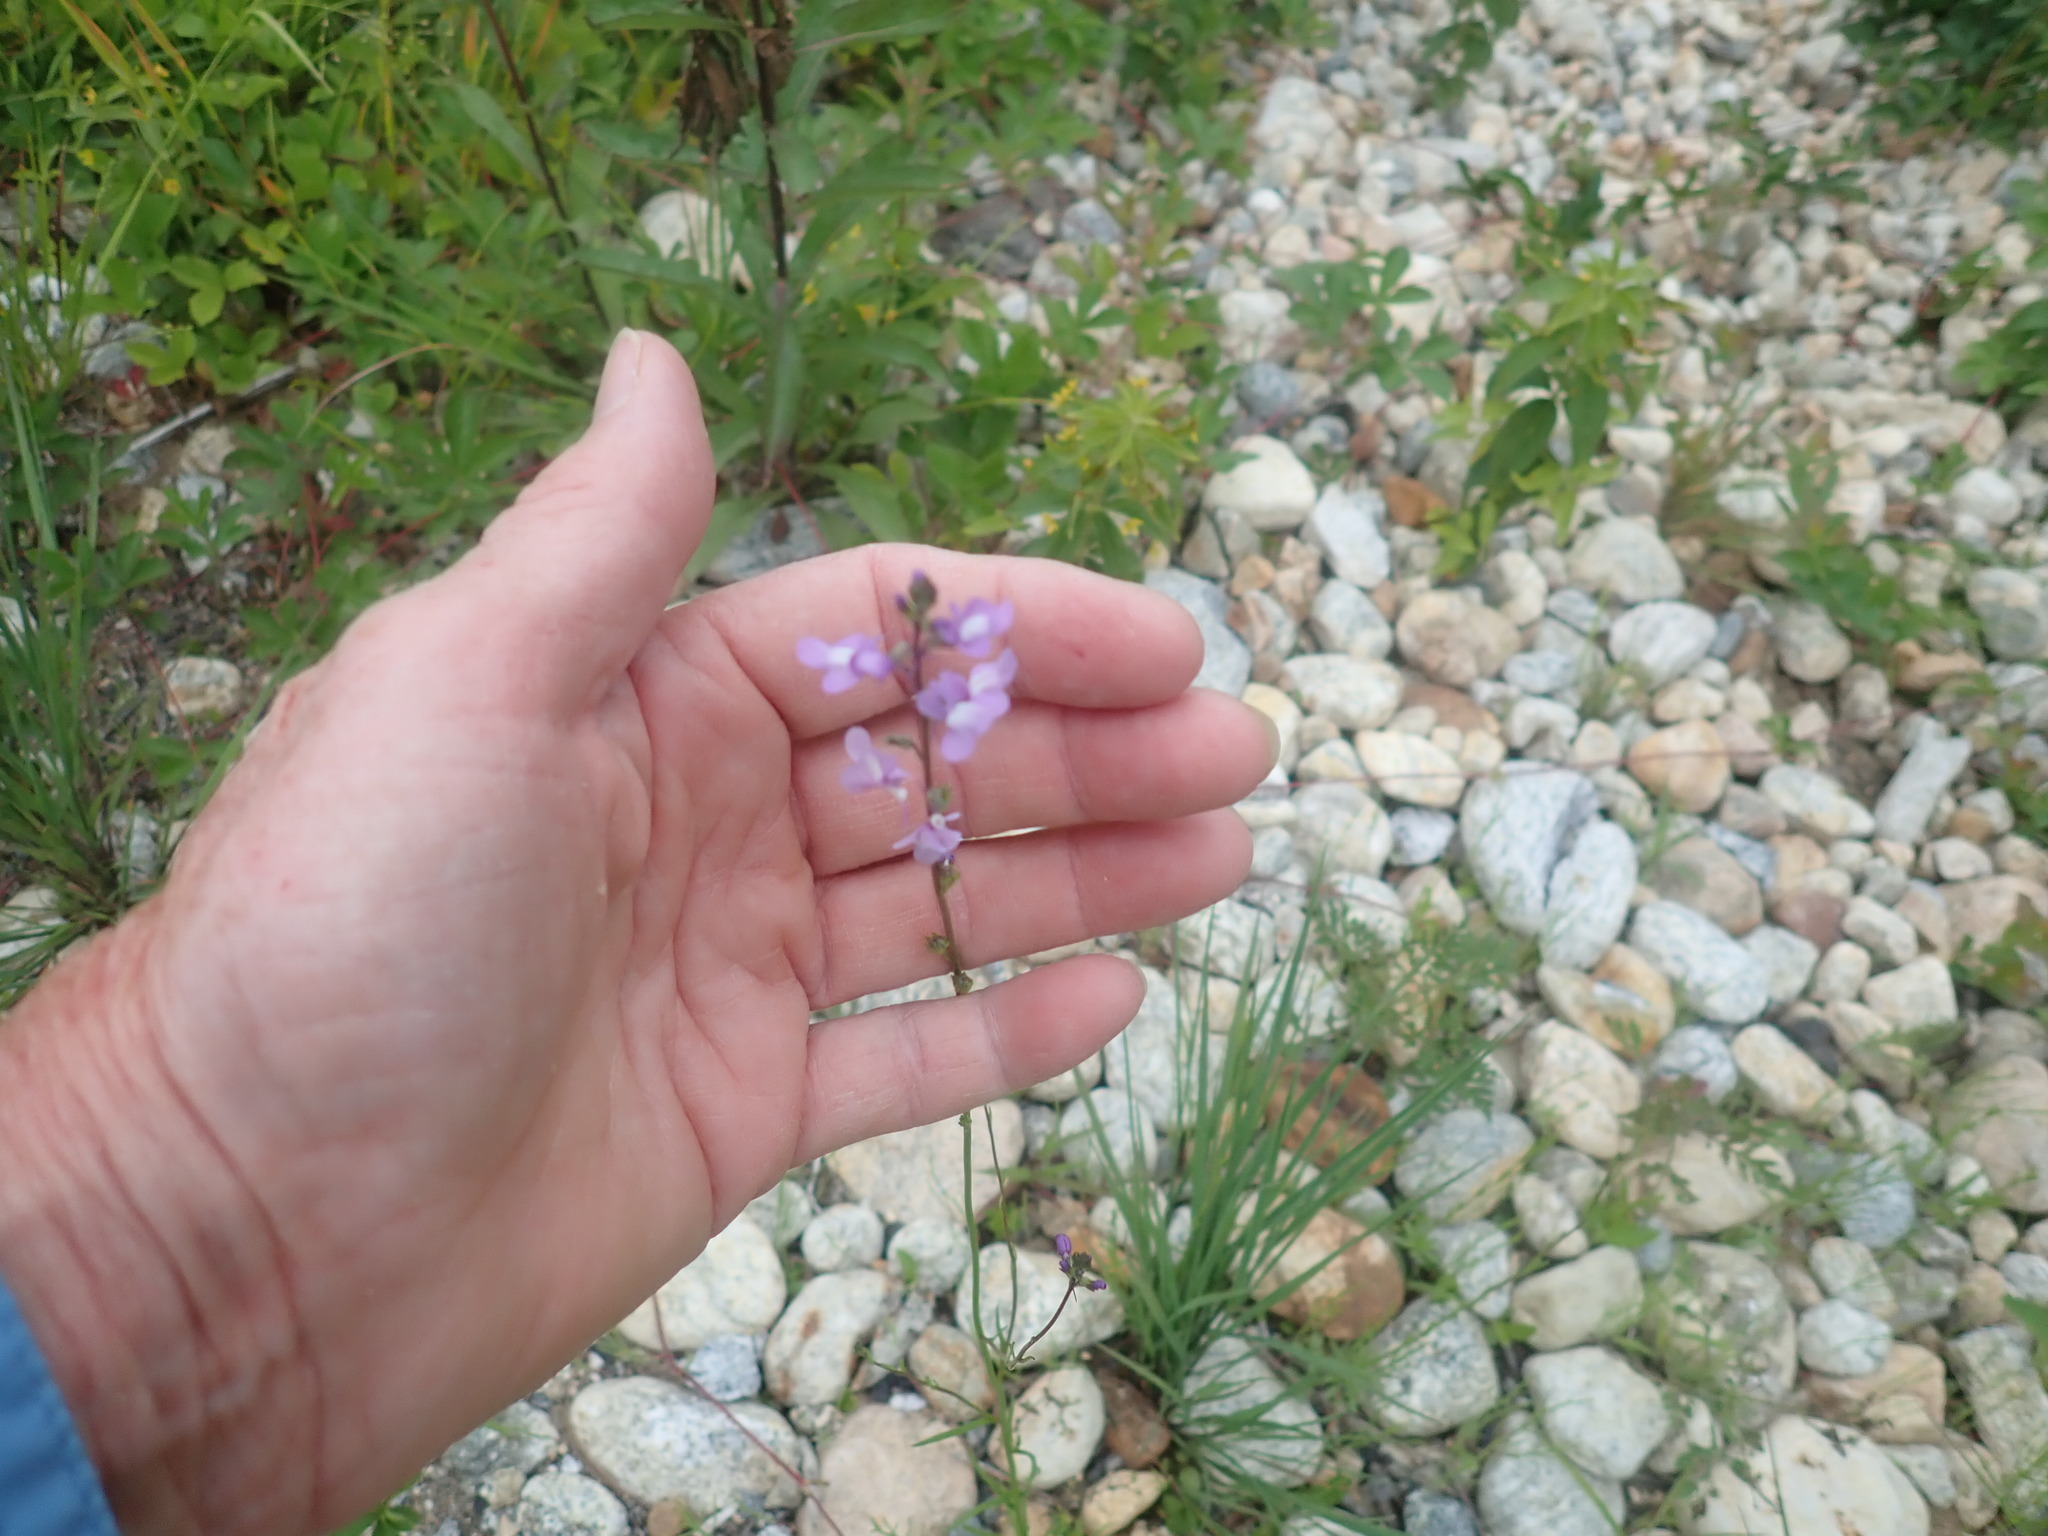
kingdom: Plantae
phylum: Tracheophyta
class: Magnoliopsida
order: Lamiales
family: Plantaginaceae
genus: Nuttallanthus
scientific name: Nuttallanthus canadensis
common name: Blue toadflax
